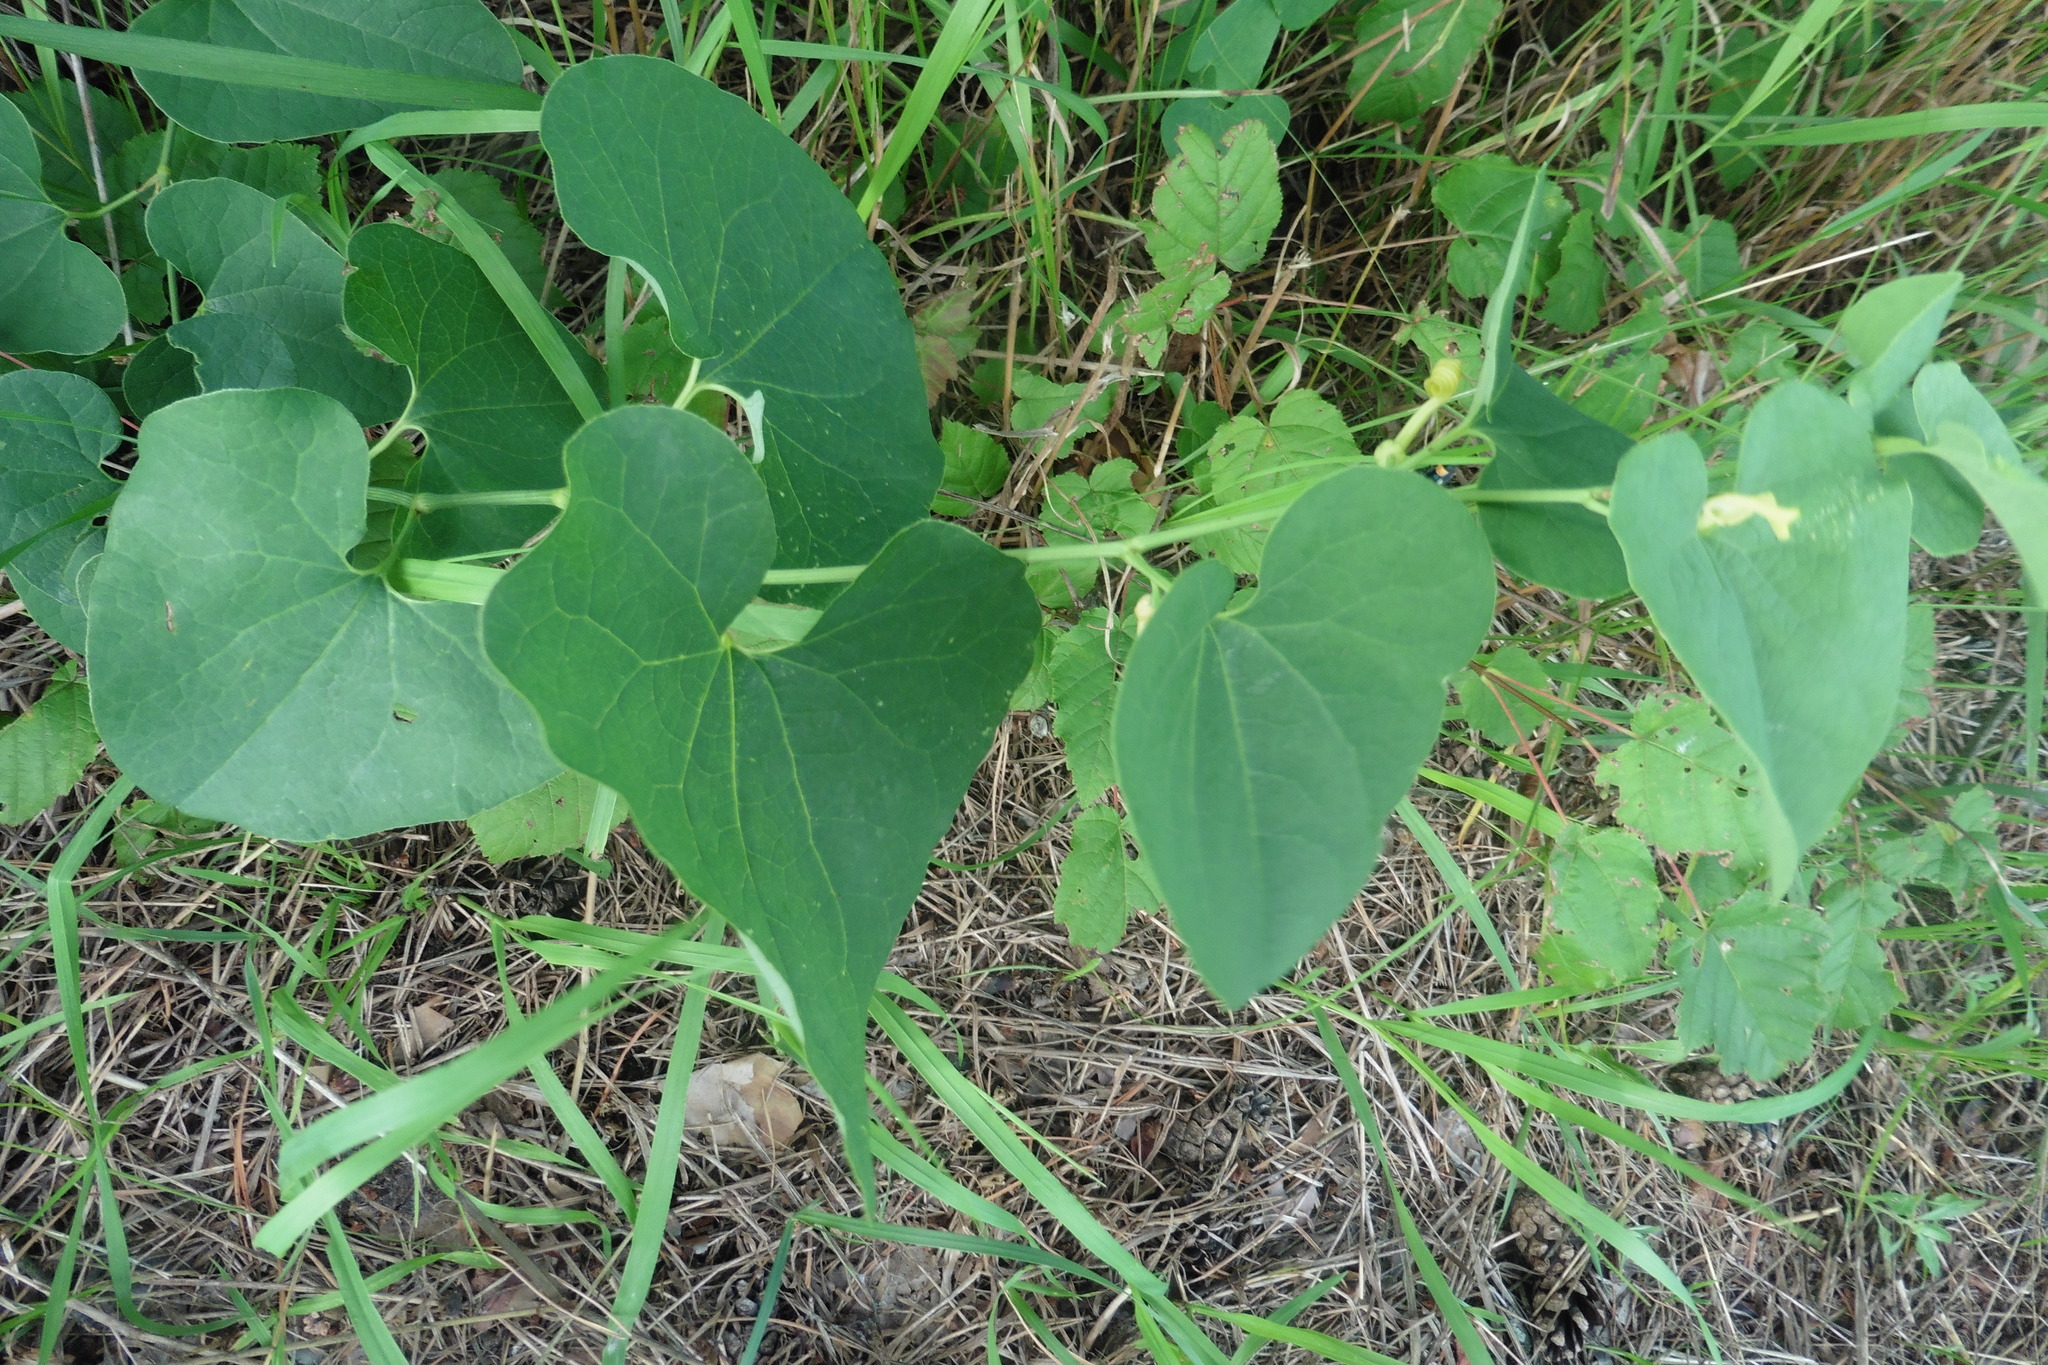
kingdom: Plantae
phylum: Tracheophyta
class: Magnoliopsida
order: Piperales
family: Aristolochiaceae
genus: Aristolochia
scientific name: Aristolochia clematitis
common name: Birthwort
